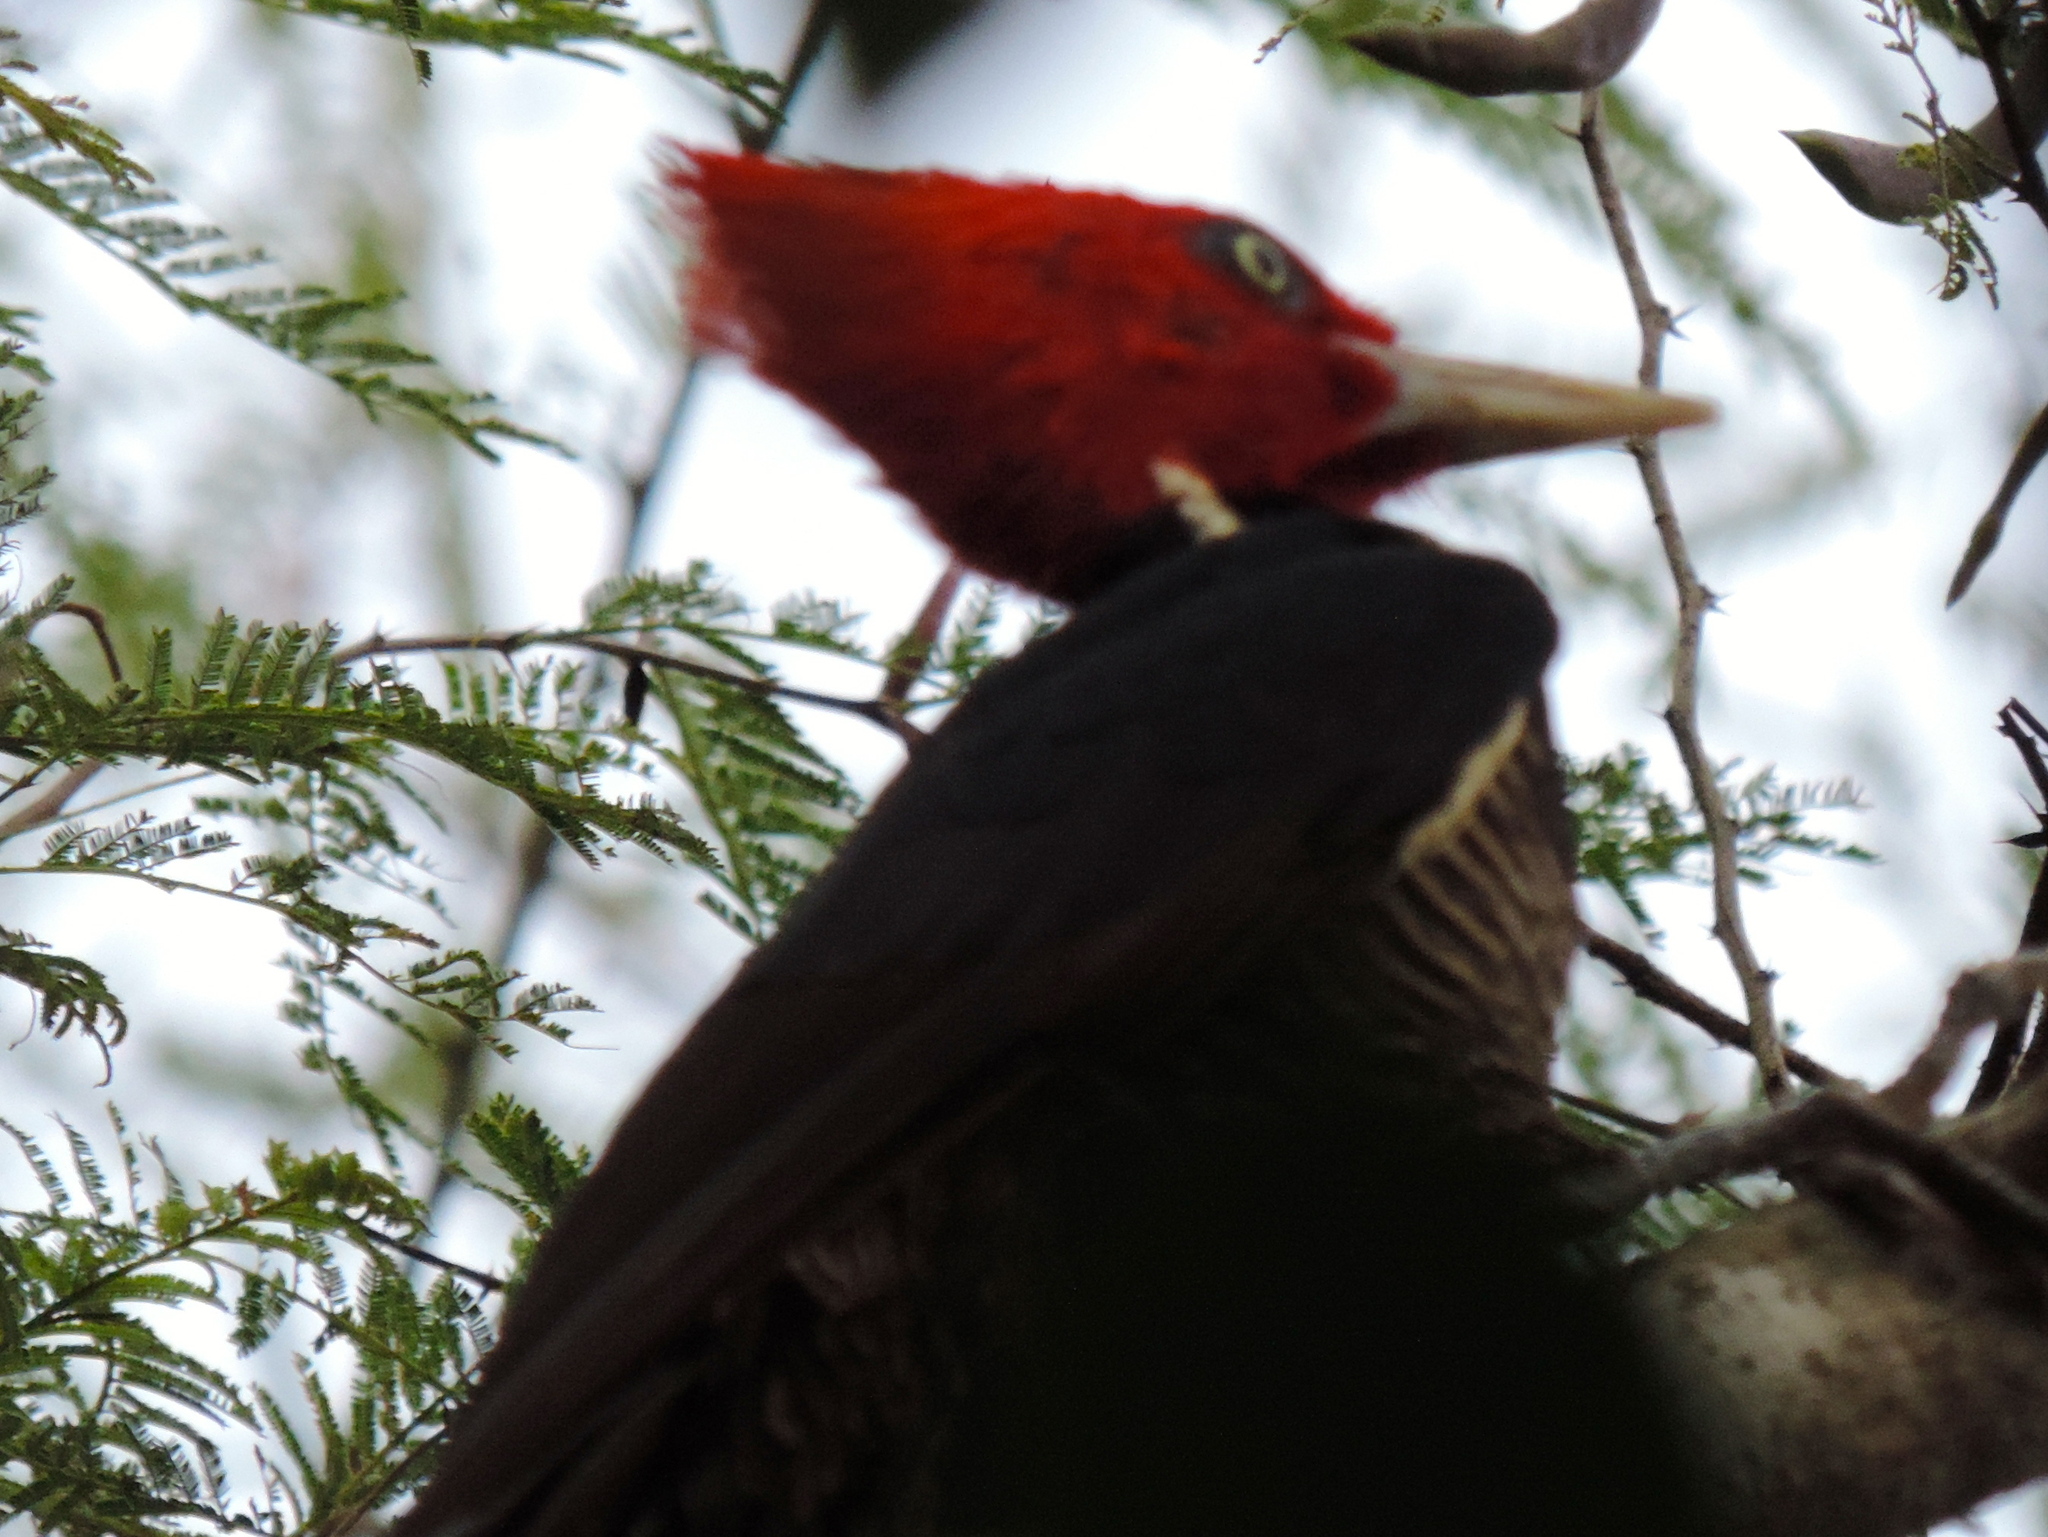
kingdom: Animalia
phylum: Chordata
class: Aves
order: Piciformes
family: Picidae
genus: Campephilus
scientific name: Campephilus guatemalensis
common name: Pale-billed woodpecker
